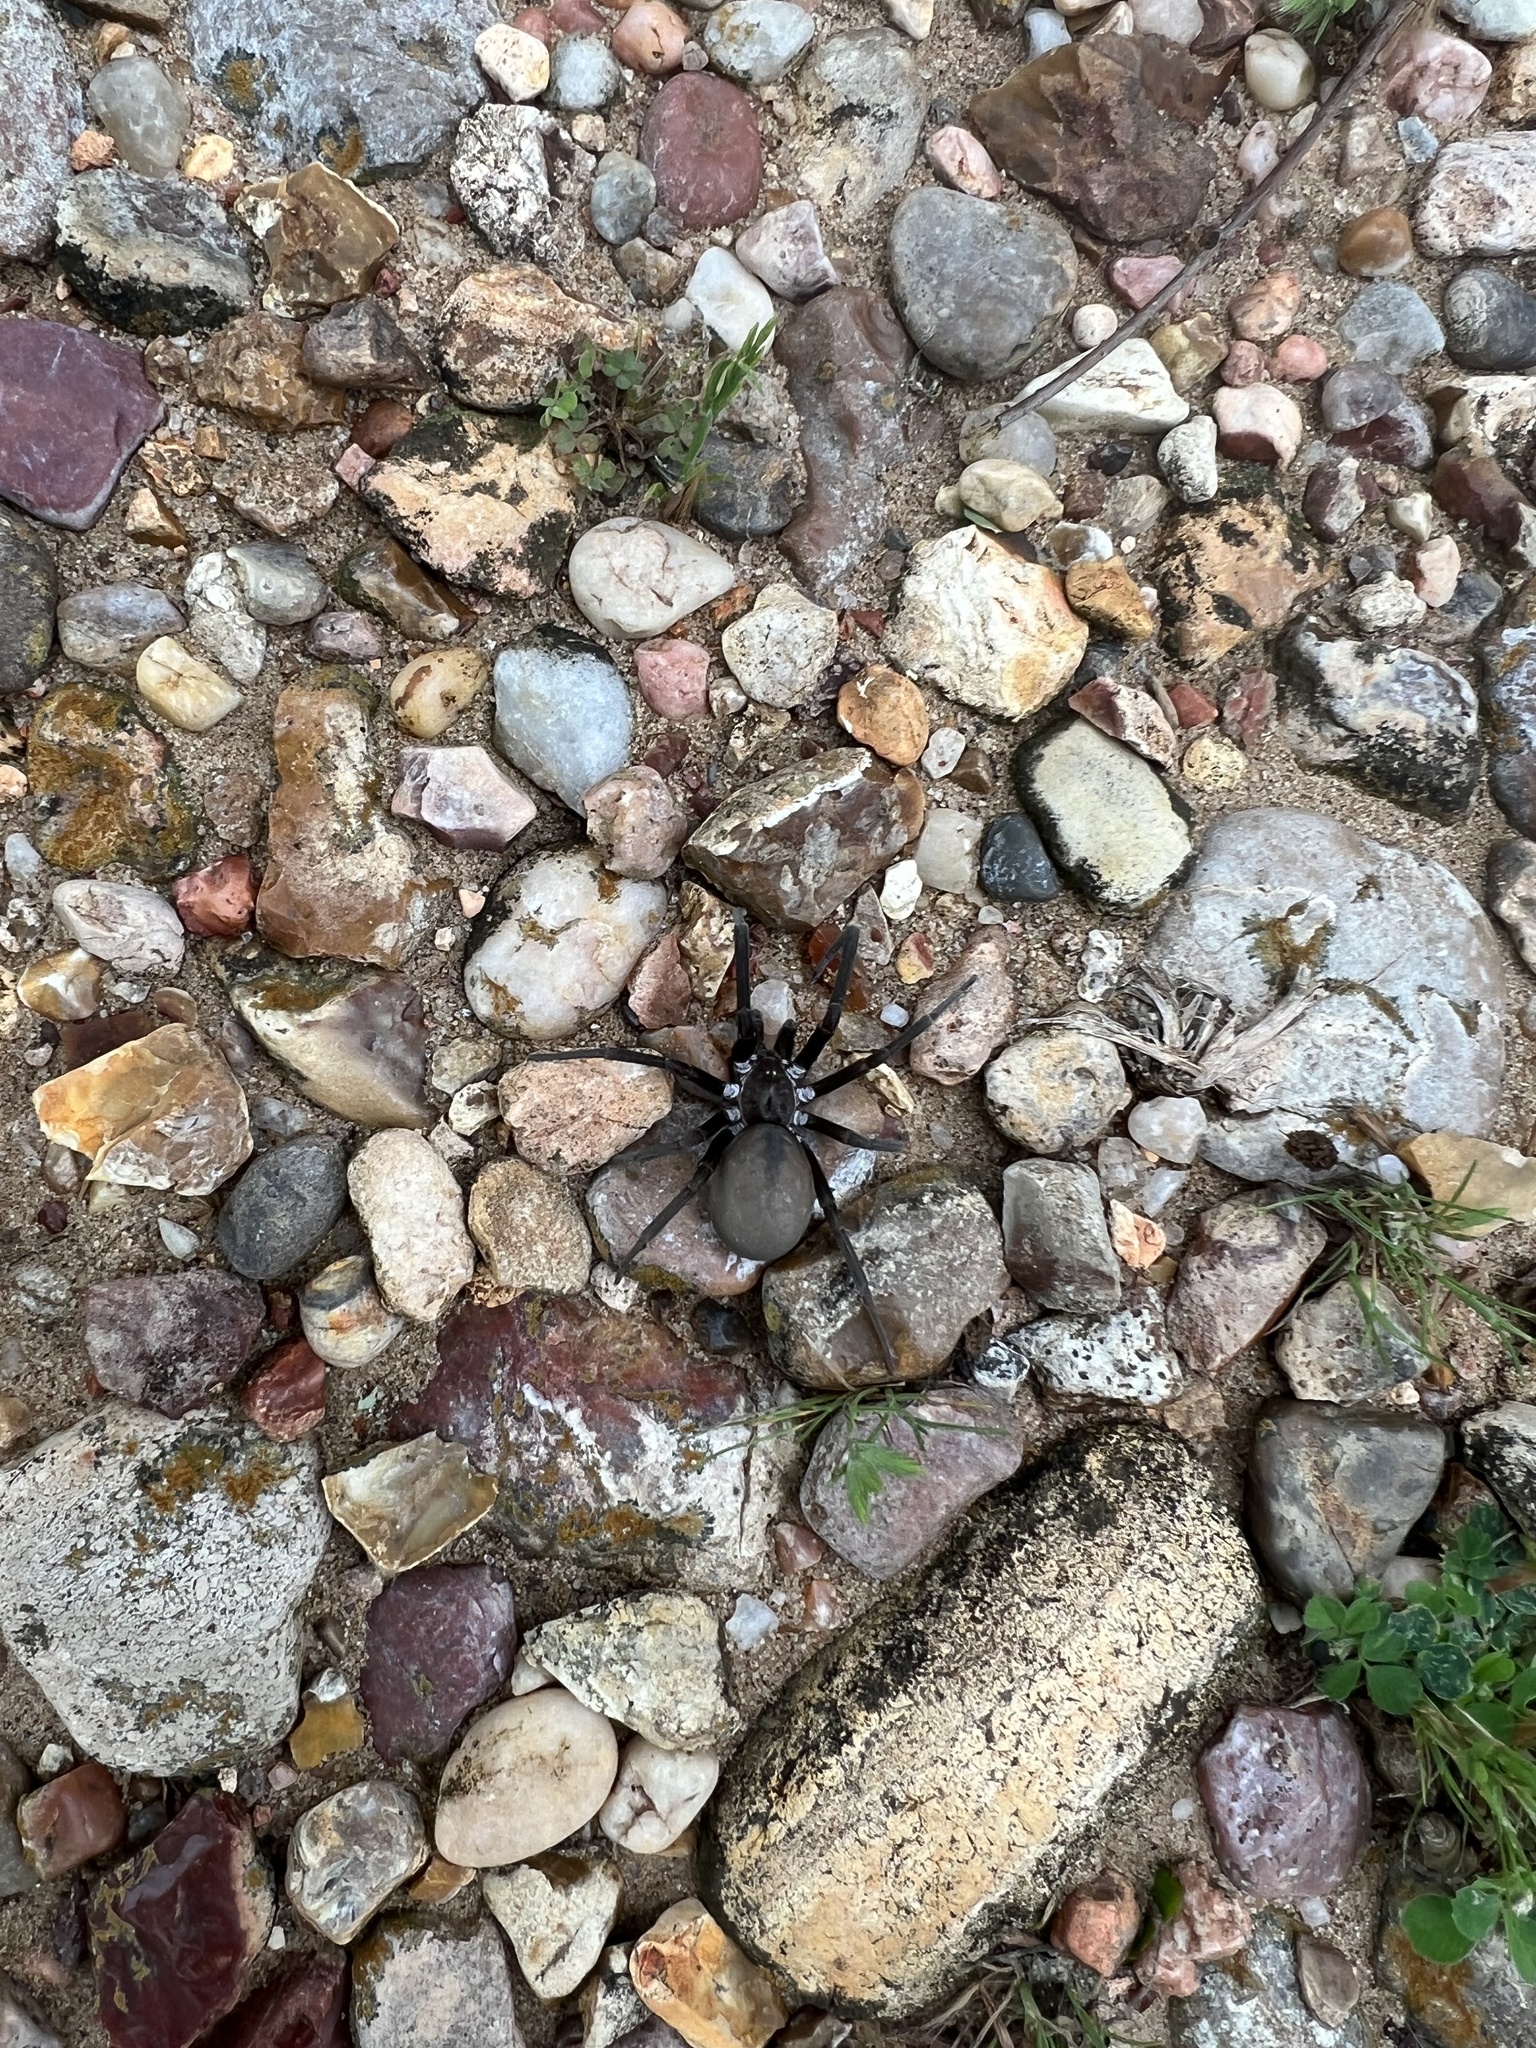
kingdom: Animalia
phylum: Arthropoda
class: Arachnida
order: Araneae
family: Filistatidae
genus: Kukulcania
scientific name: Kukulcania hibernalis
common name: Crevice weaver
